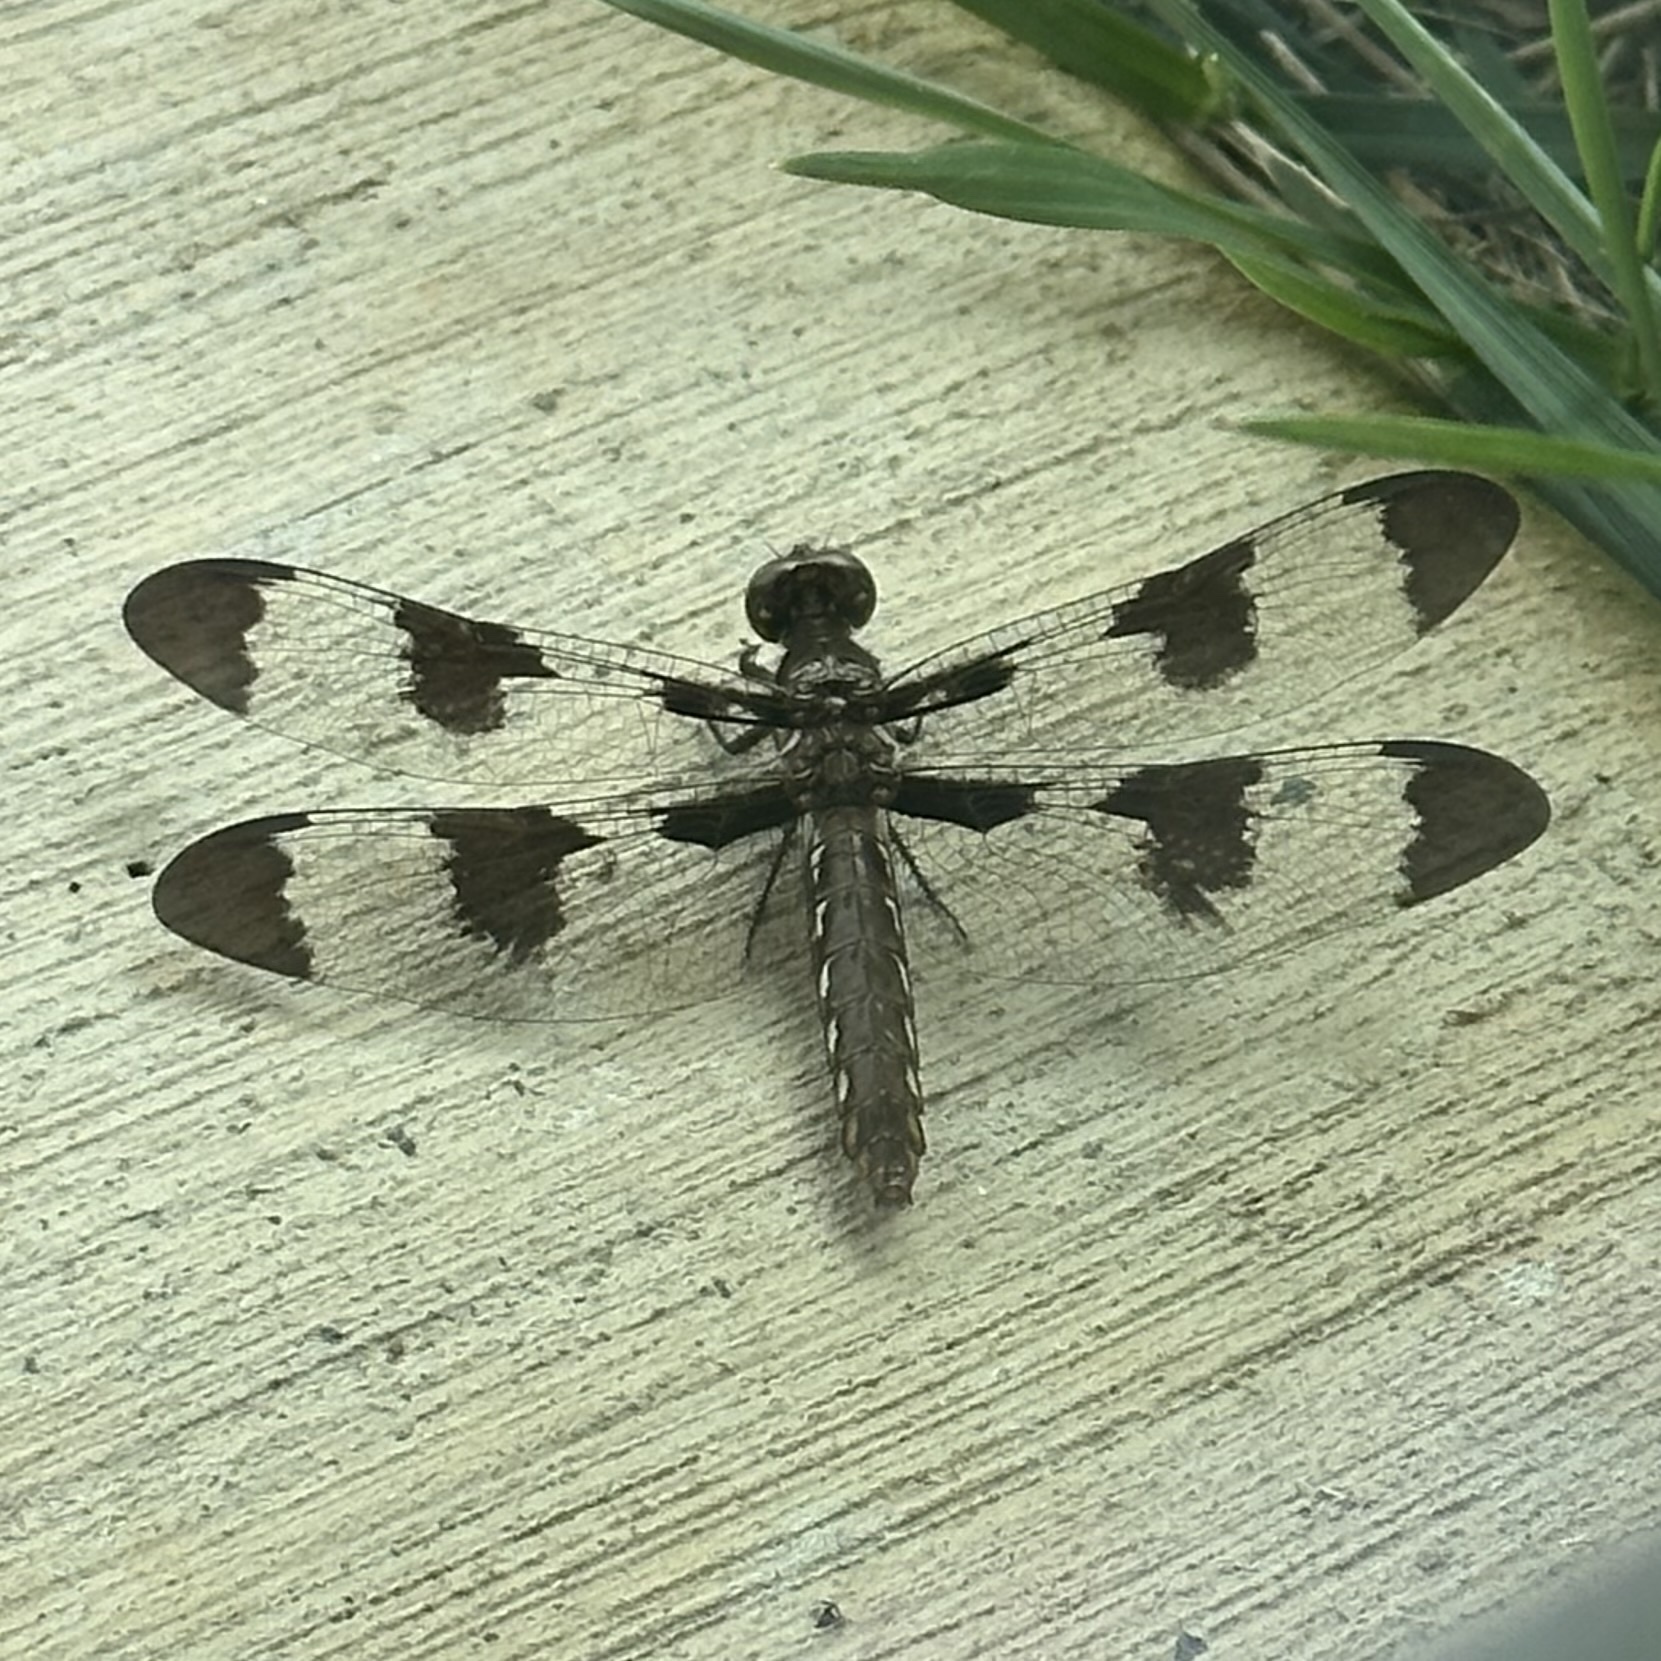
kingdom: Animalia
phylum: Arthropoda
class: Insecta
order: Odonata
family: Libellulidae
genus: Plathemis
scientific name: Plathemis lydia
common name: Common whitetail
